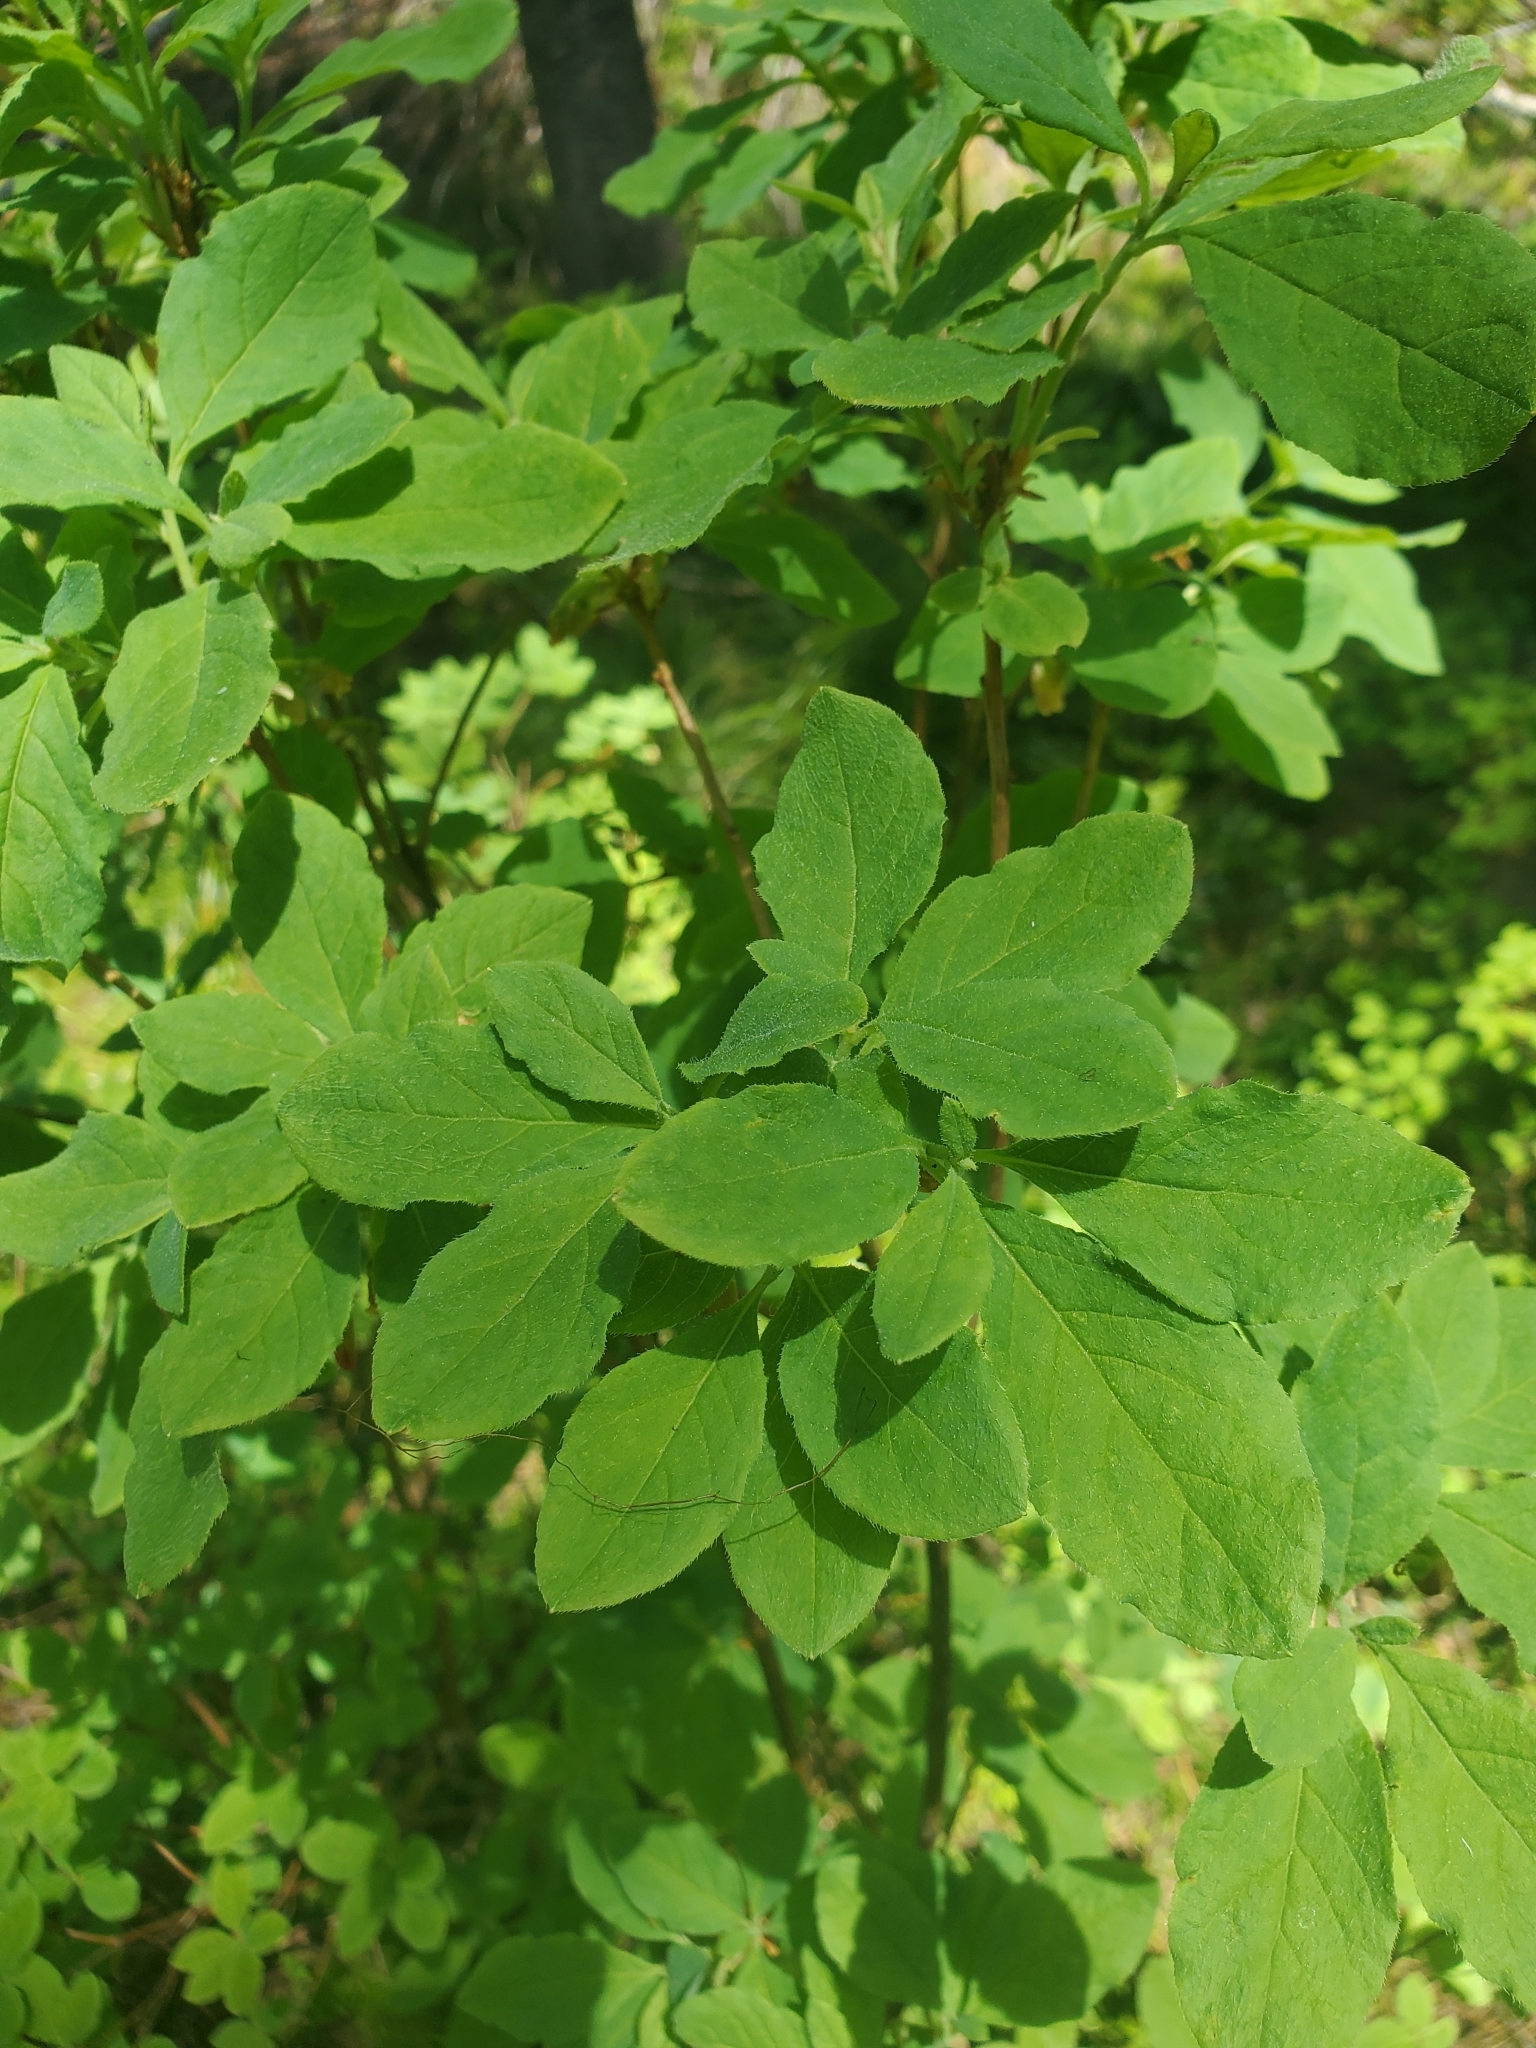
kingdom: Plantae
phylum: Tracheophyta
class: Magnoliopsida
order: Ericales
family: Ericaceae
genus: Rhododendron
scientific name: Rhododendron menziesii
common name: Pacific menziesia
